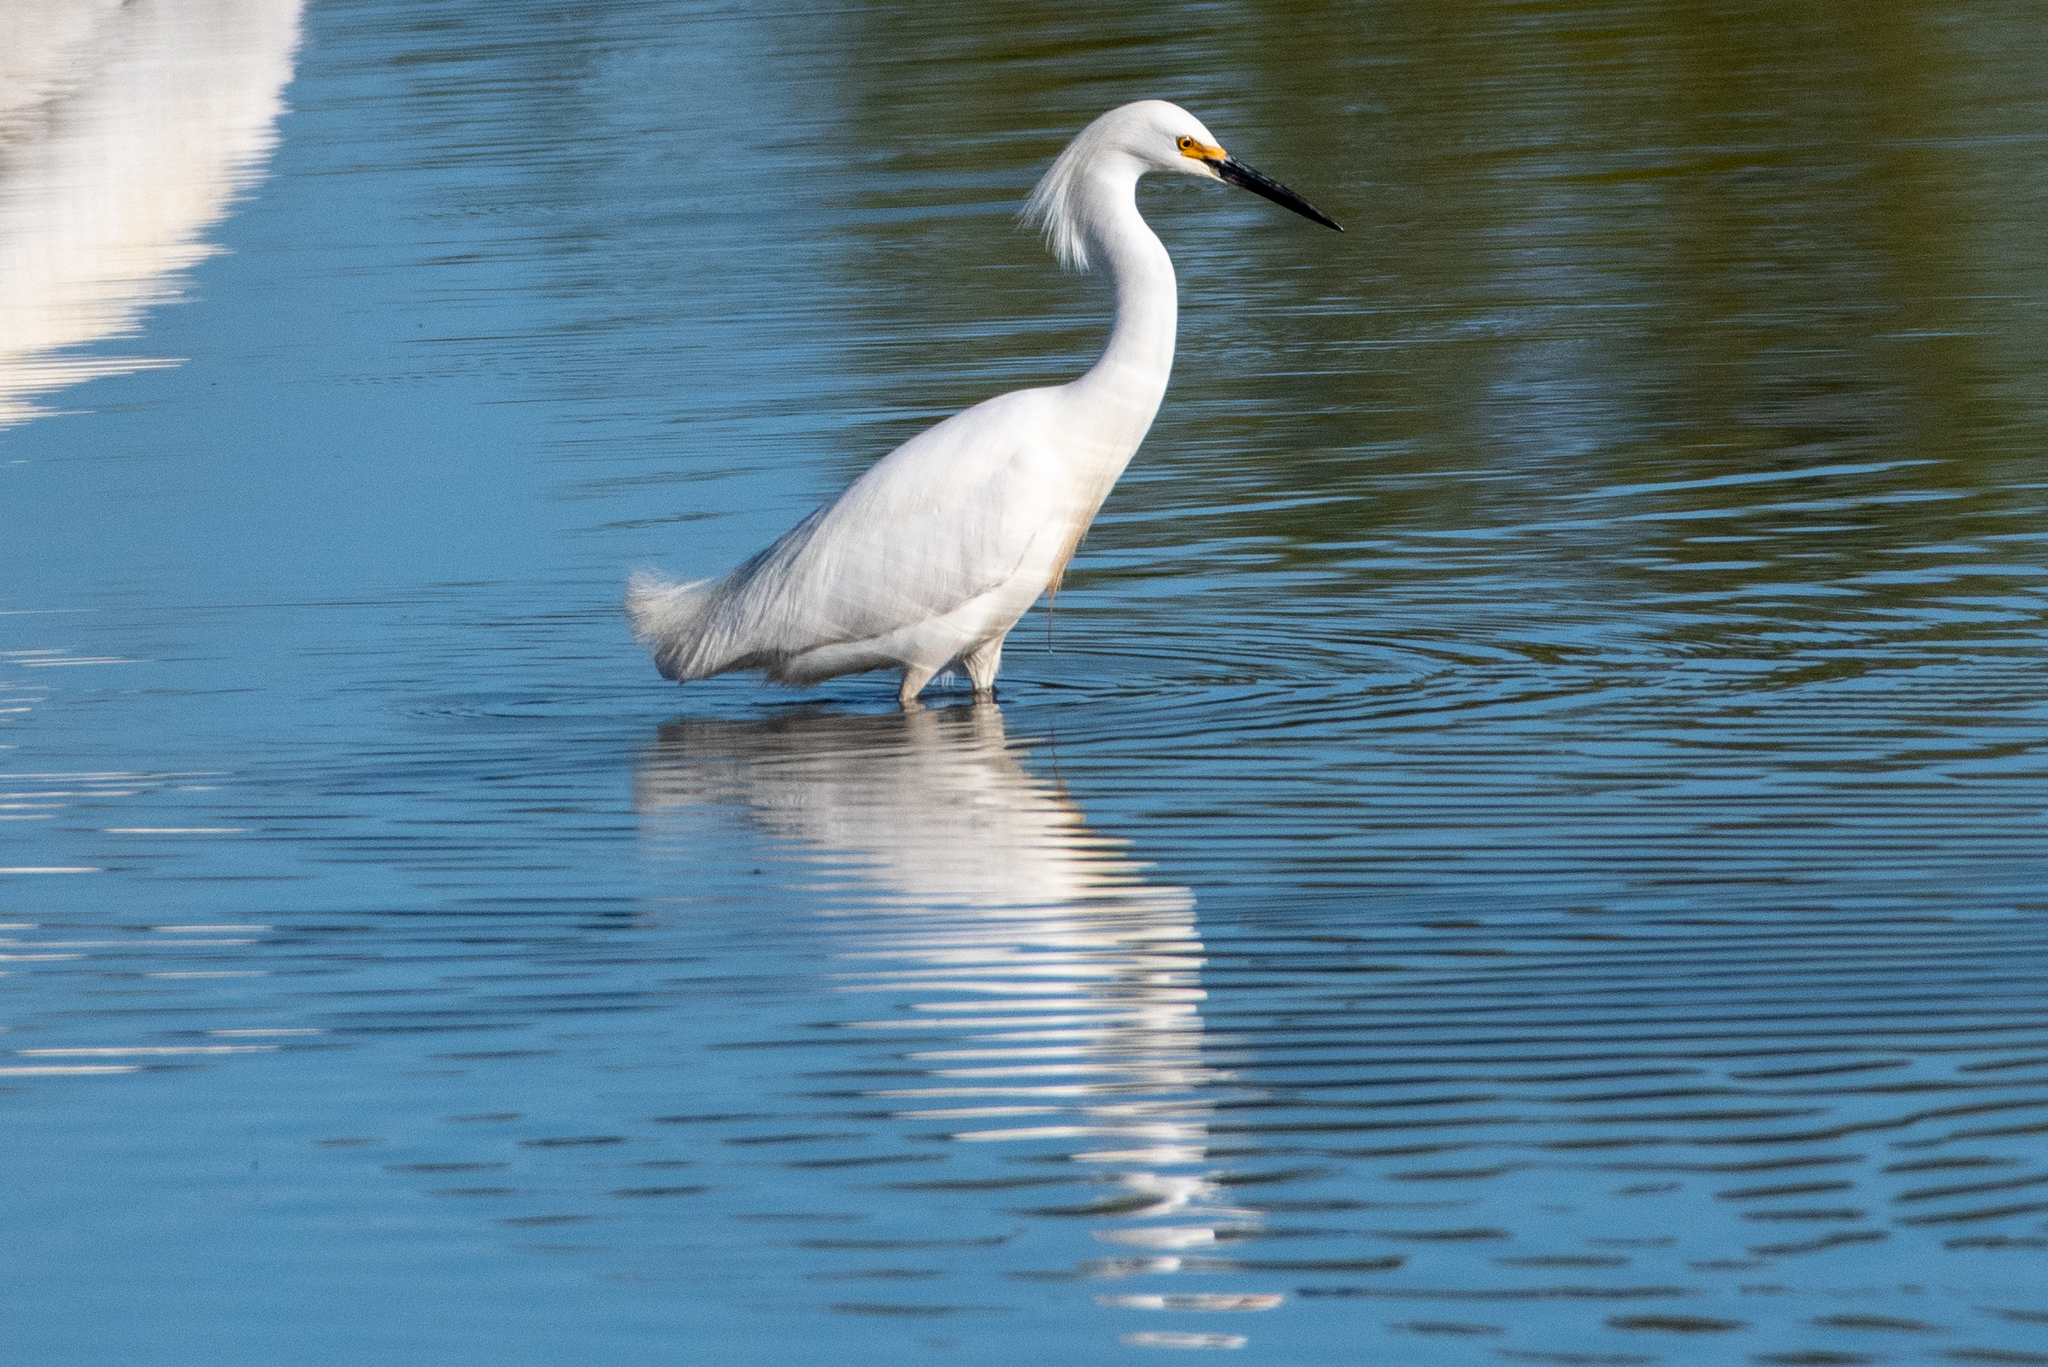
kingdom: Animalia
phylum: Chordata
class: Aves
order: Pelecaniformes
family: Ardeidae
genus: Egretta
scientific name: Egretta thula
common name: Snowy egret
